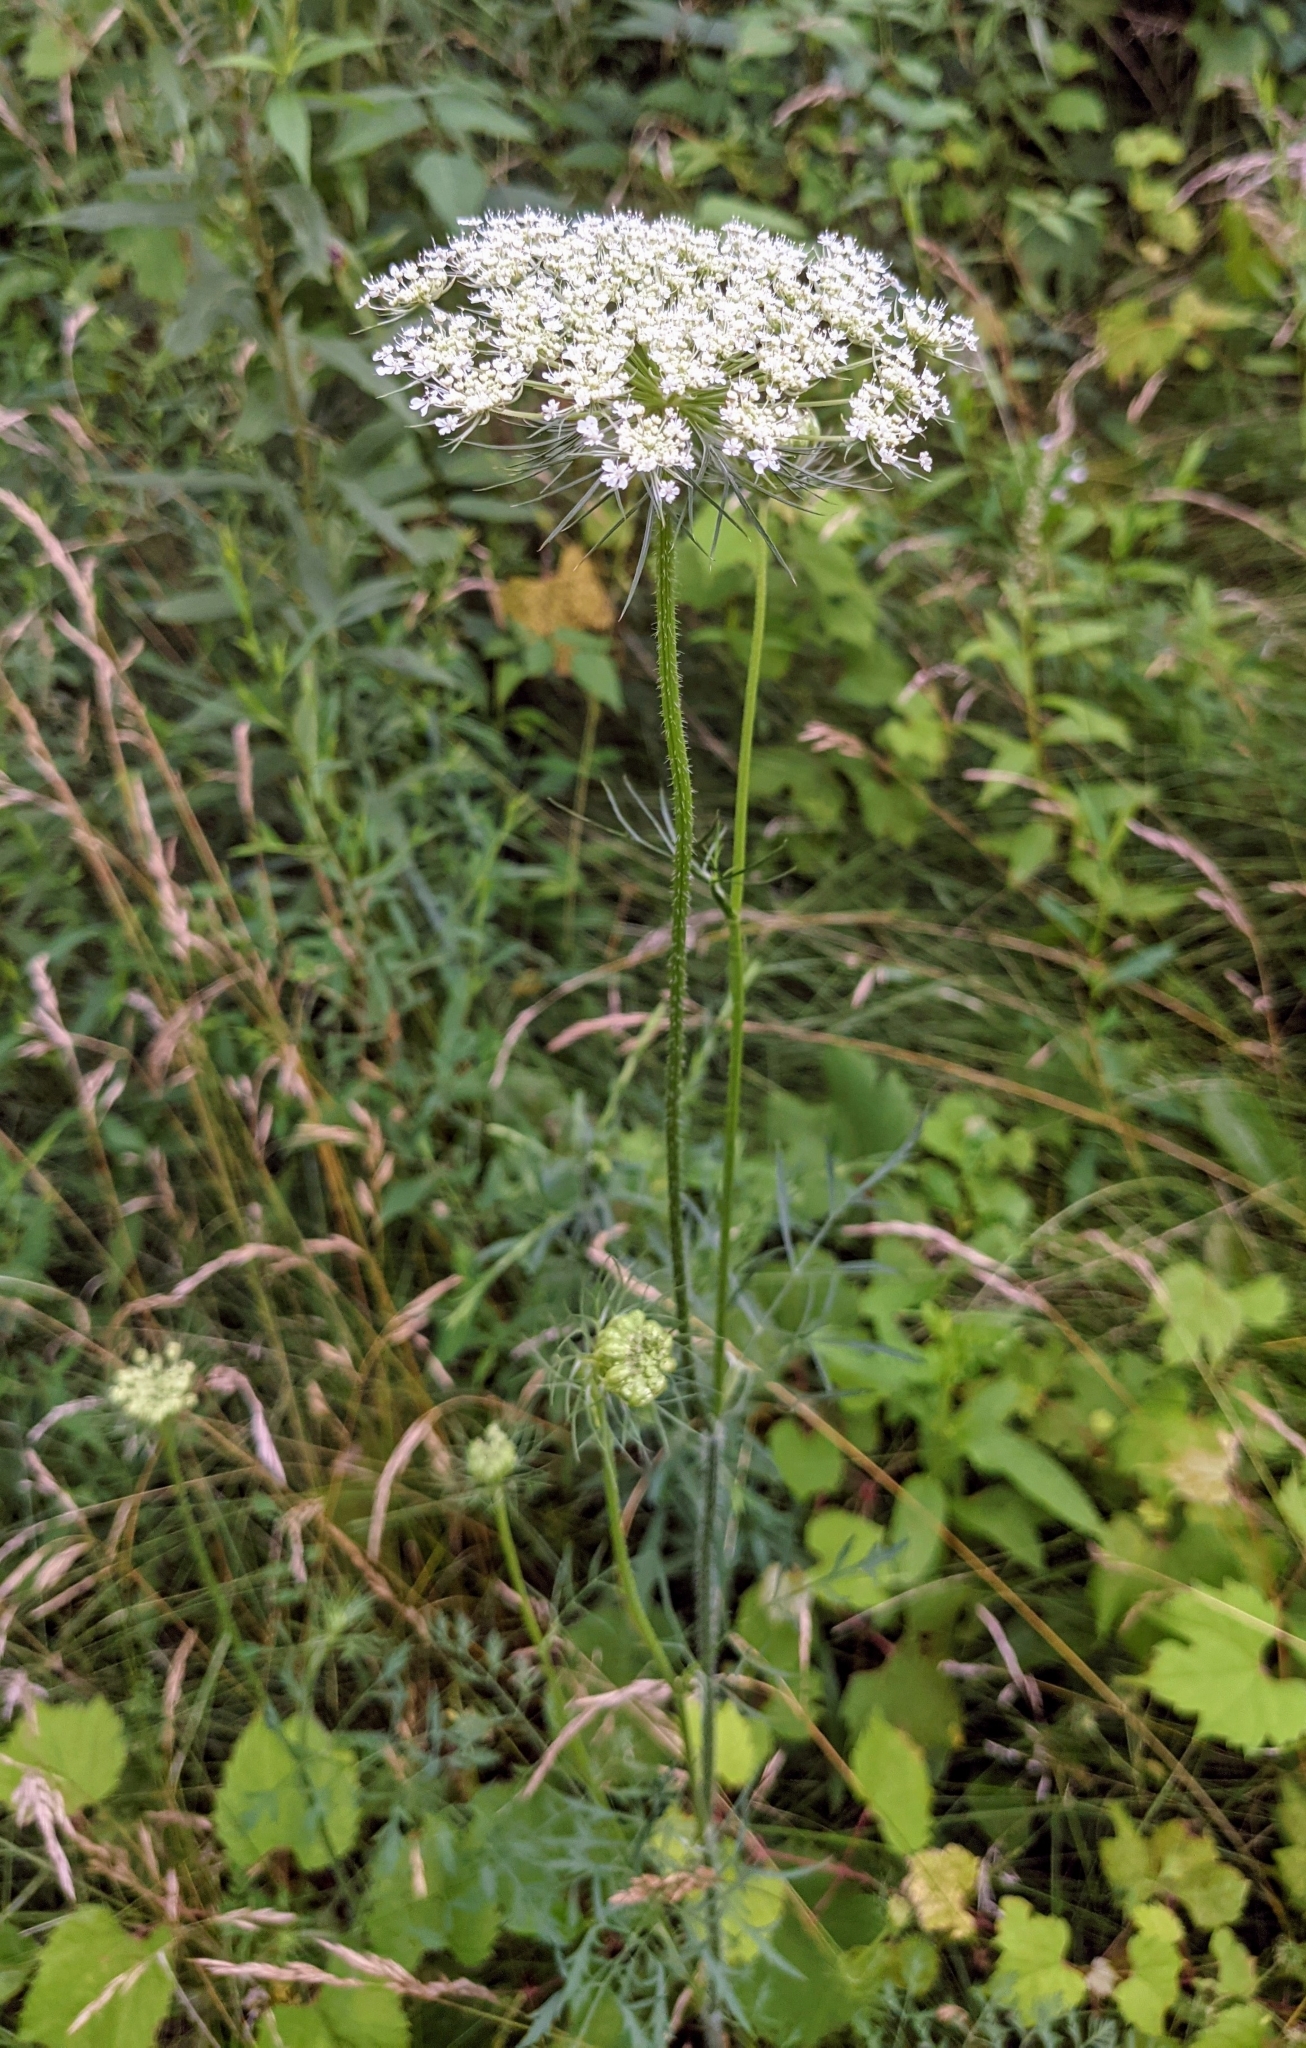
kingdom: Plantae
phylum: Tracheophyta
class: Magnoliopsida
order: Apiales
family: Apiaceae
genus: Daucus
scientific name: Daucus carota
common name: Wild carrot
